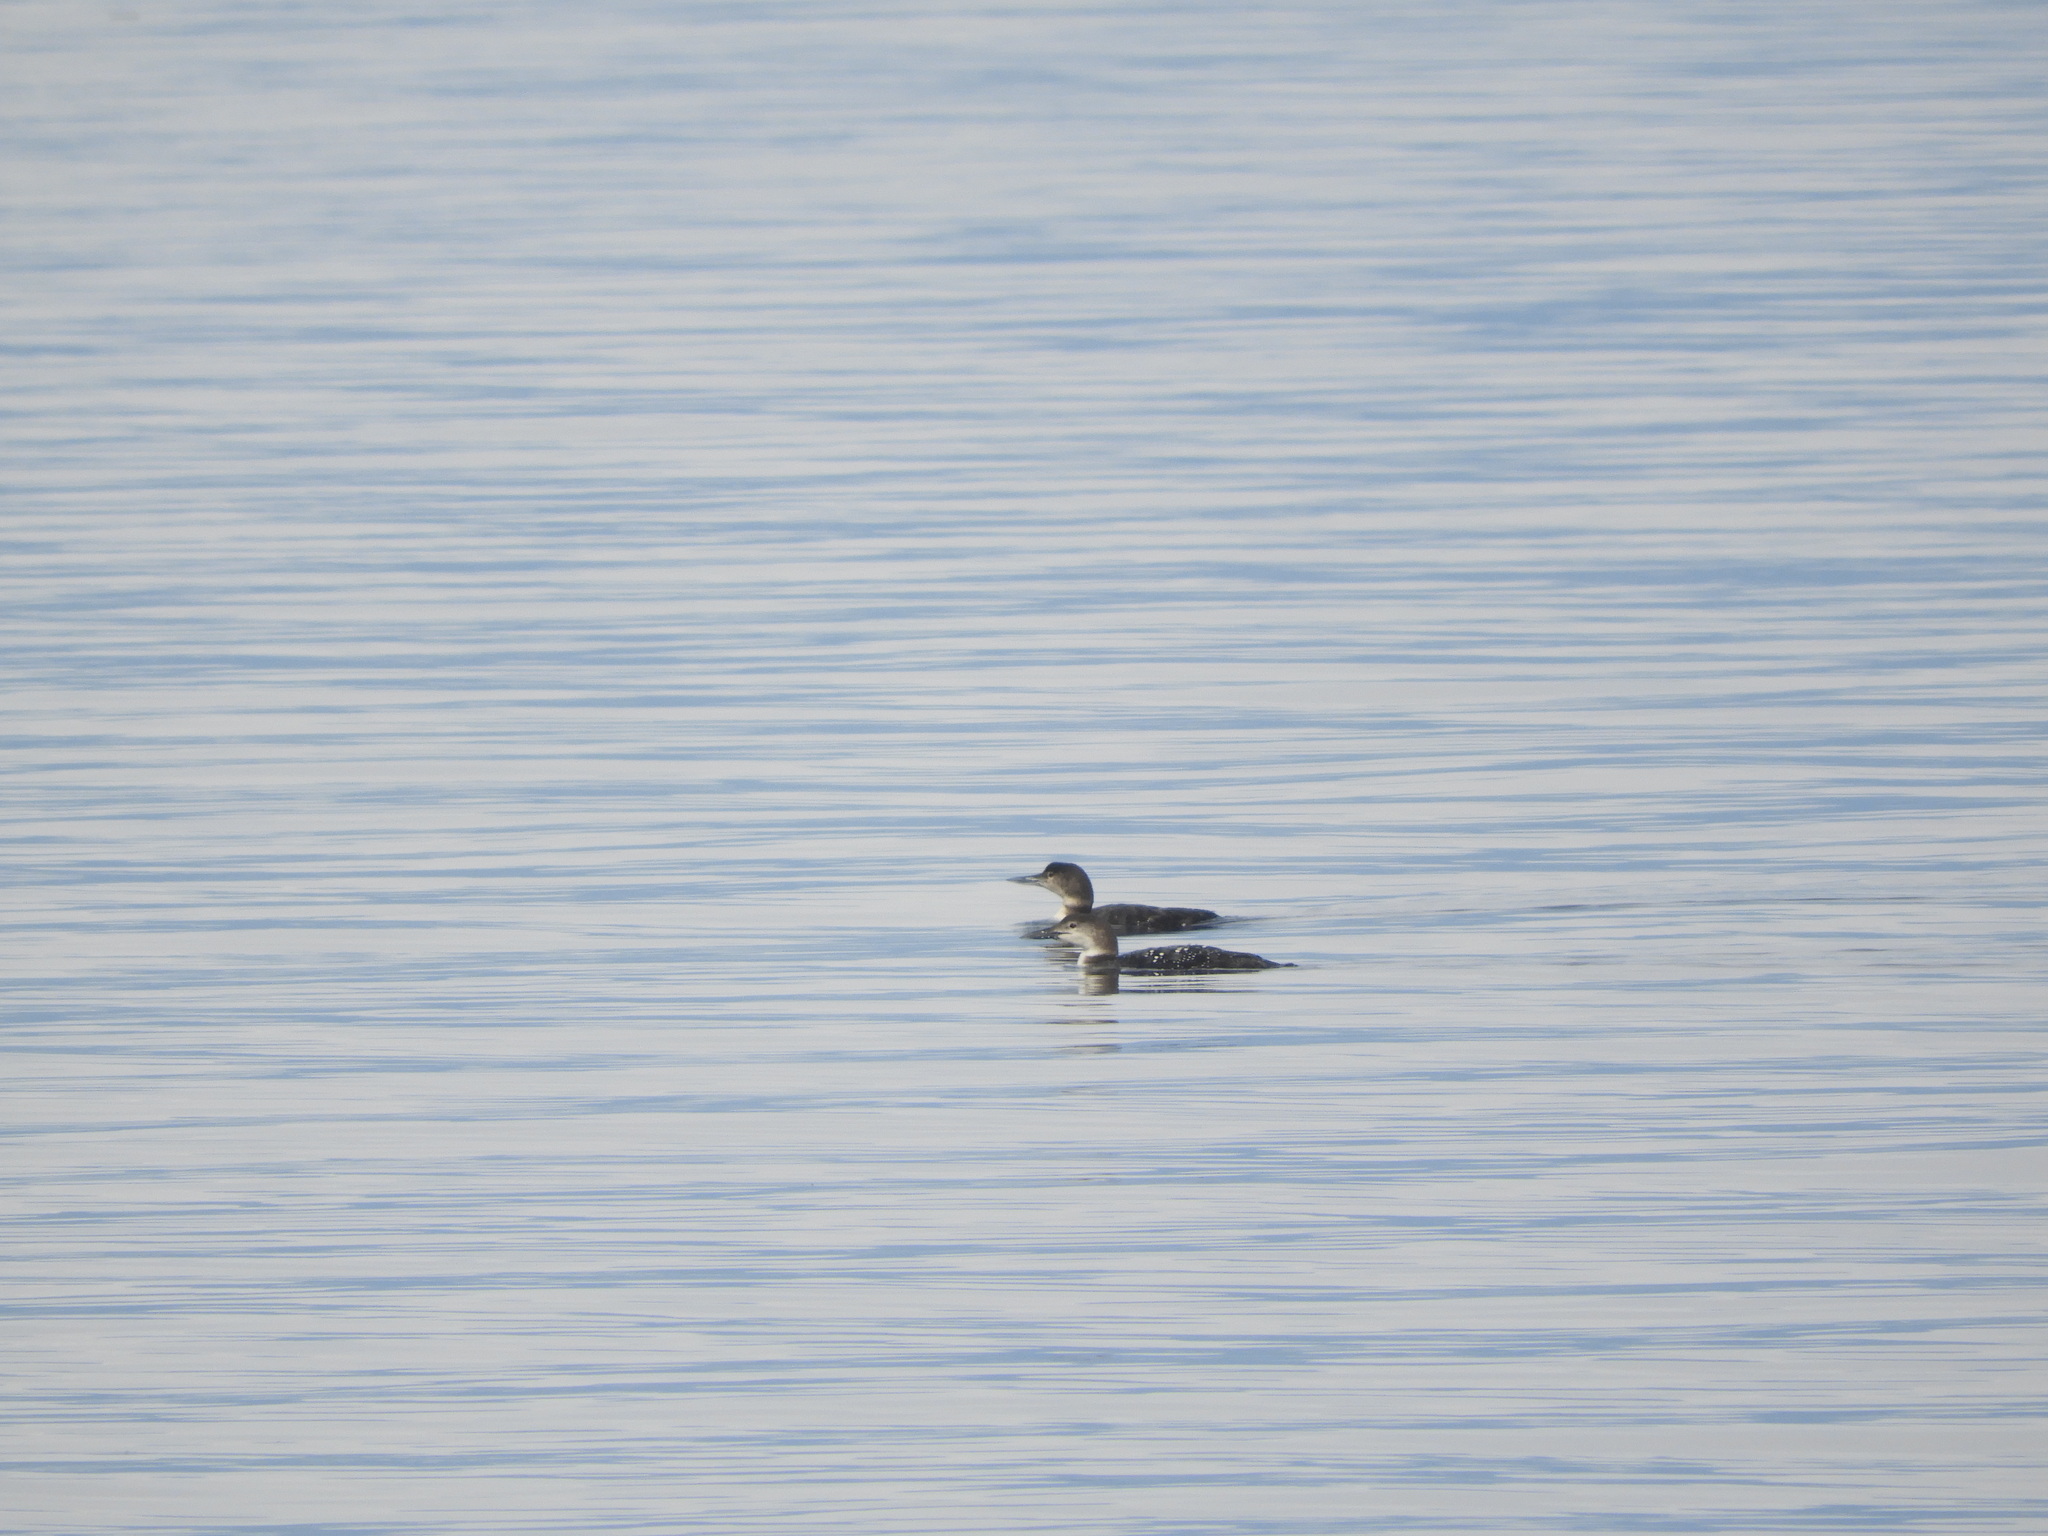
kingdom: Animalia
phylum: Chordata
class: Aves
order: Gaviiformes
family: Gaviidae
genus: Gavia
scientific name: Gavia immer
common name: Common loon
